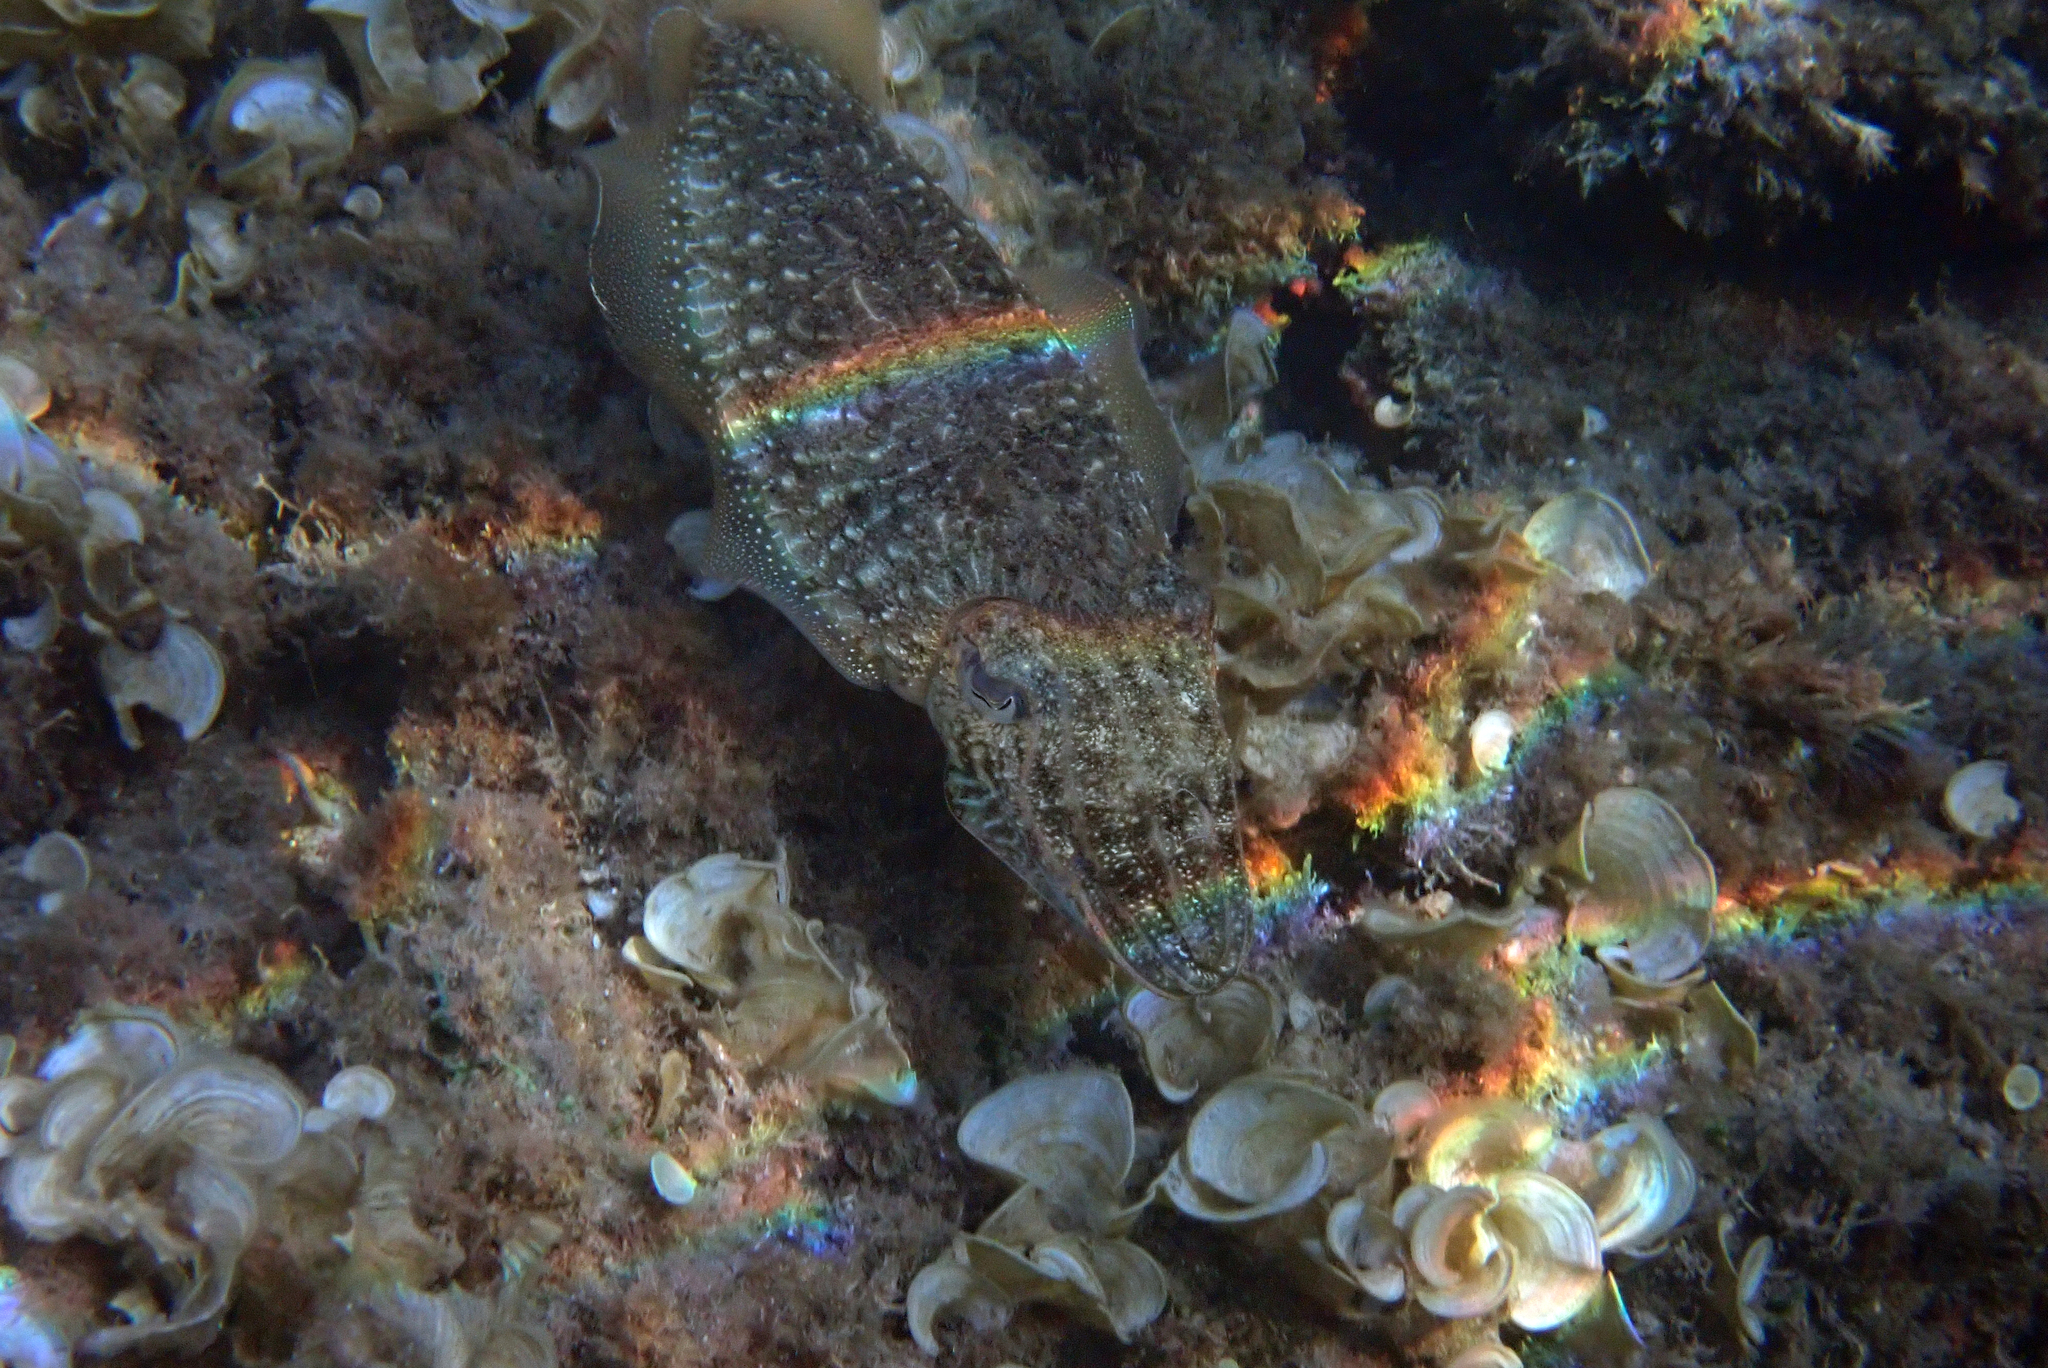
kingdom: Animalia
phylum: Mollusca
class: Cephalopoda
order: Sepiida
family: Sepiidae
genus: Sepia
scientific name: Sepia officinalis
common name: Common cuttlefish
